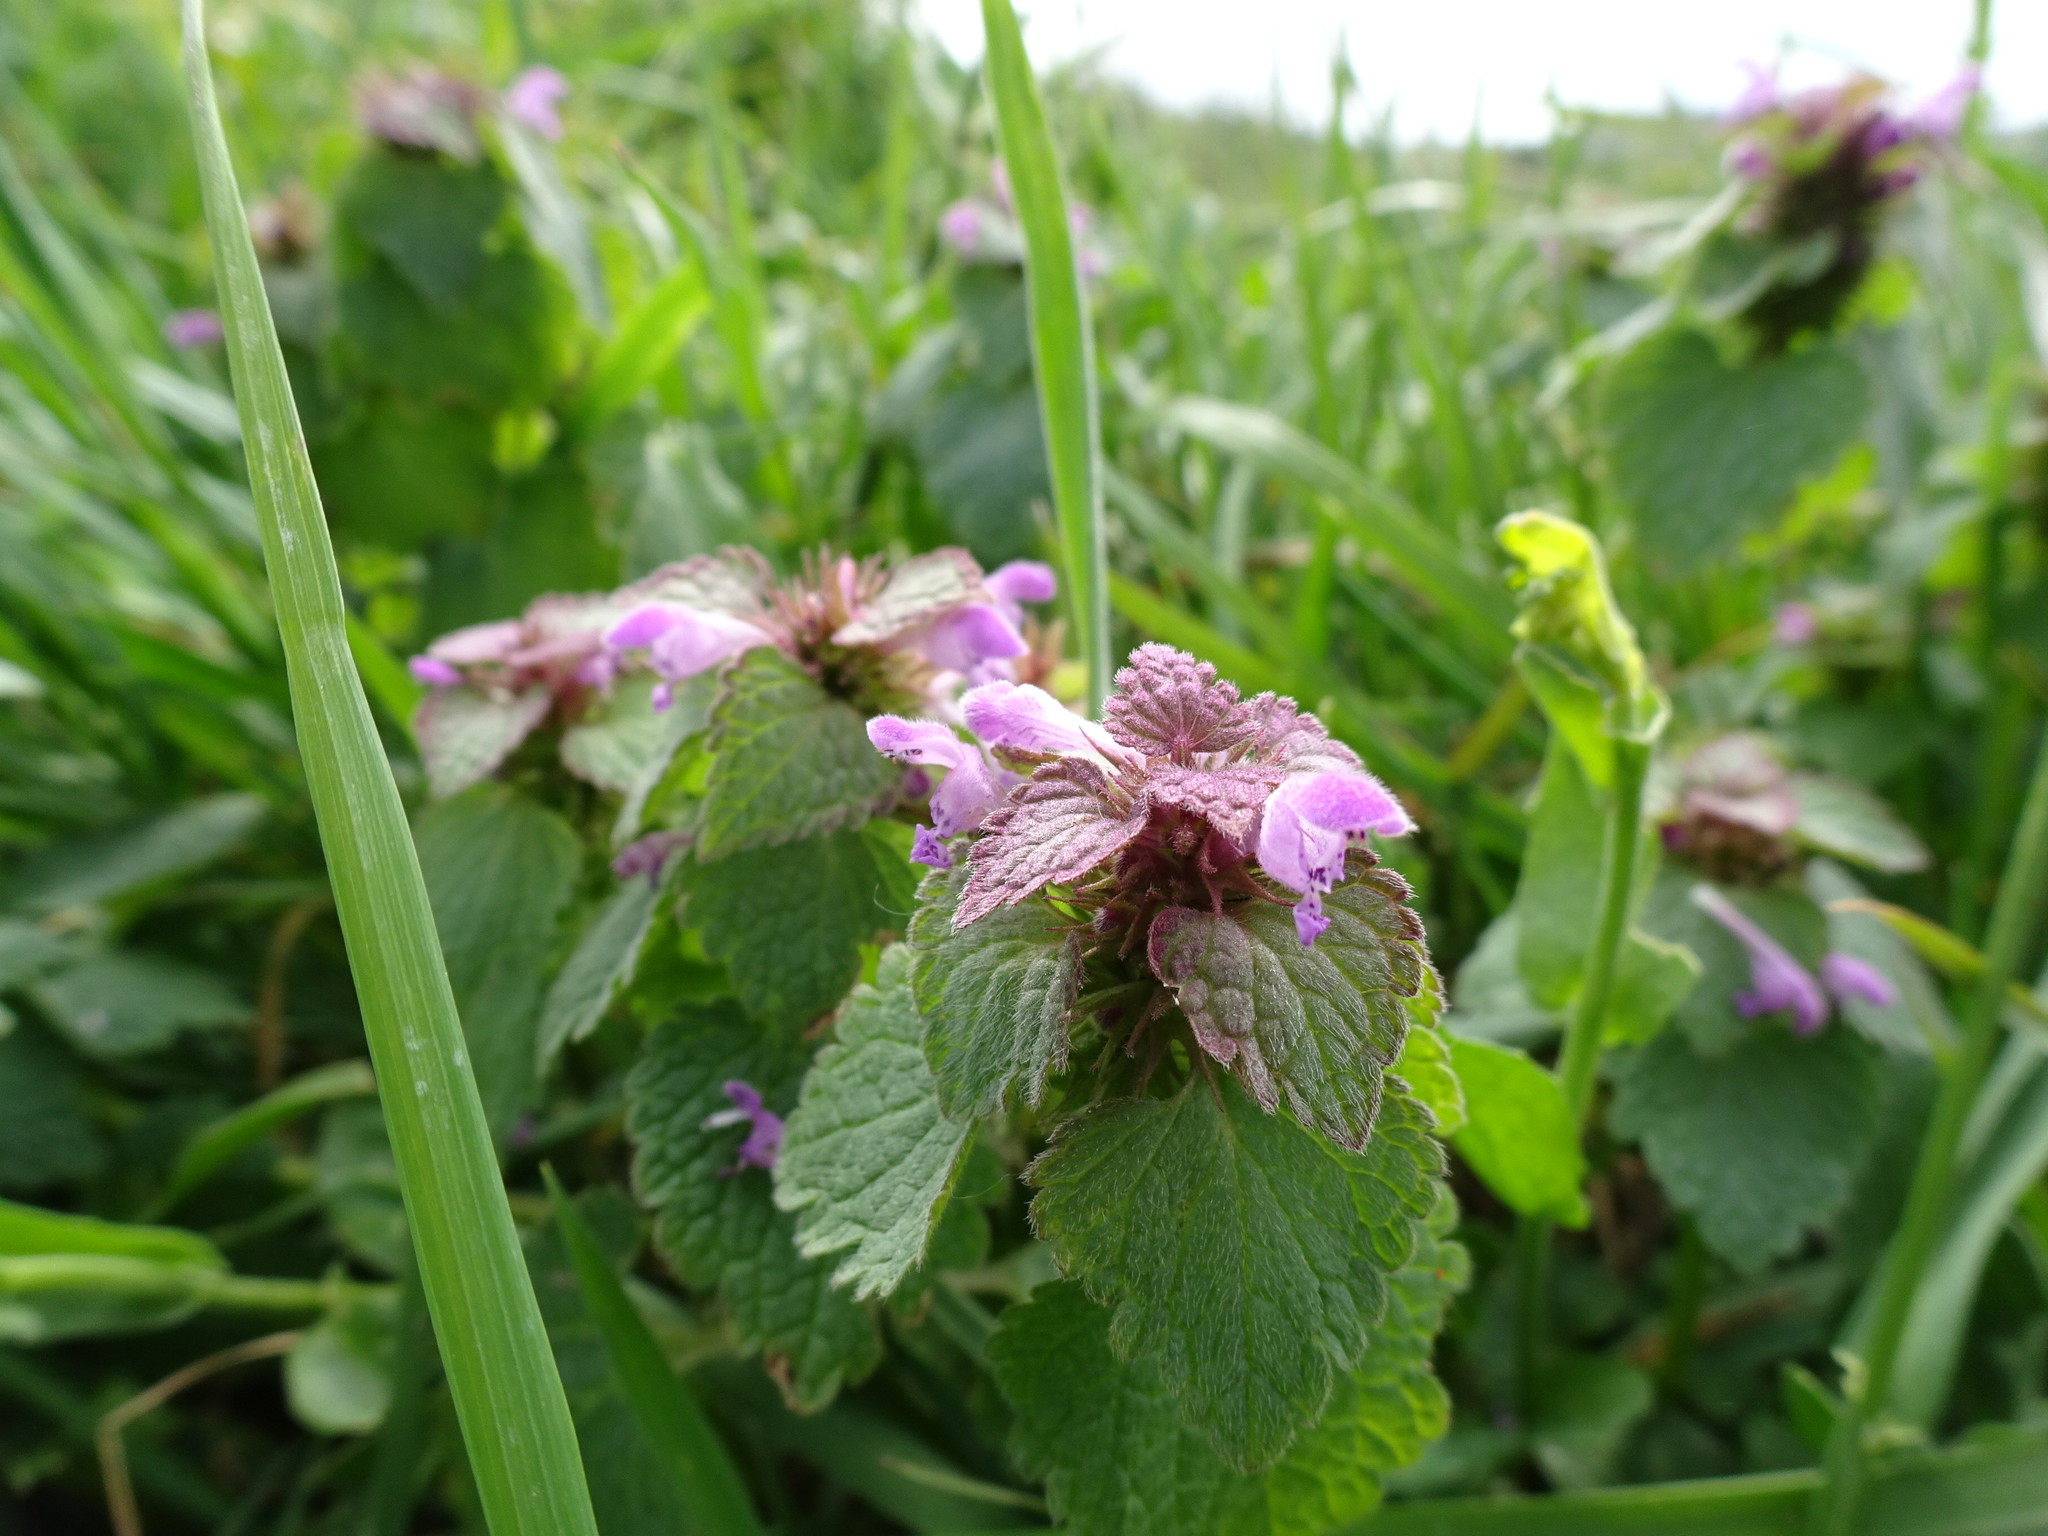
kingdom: Plantae
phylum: Tracheophyta
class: Magnoliopsida
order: Lamiales
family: Lamiaceae
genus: Lamium
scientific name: Lamium purpureum
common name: Red dead-nettle
